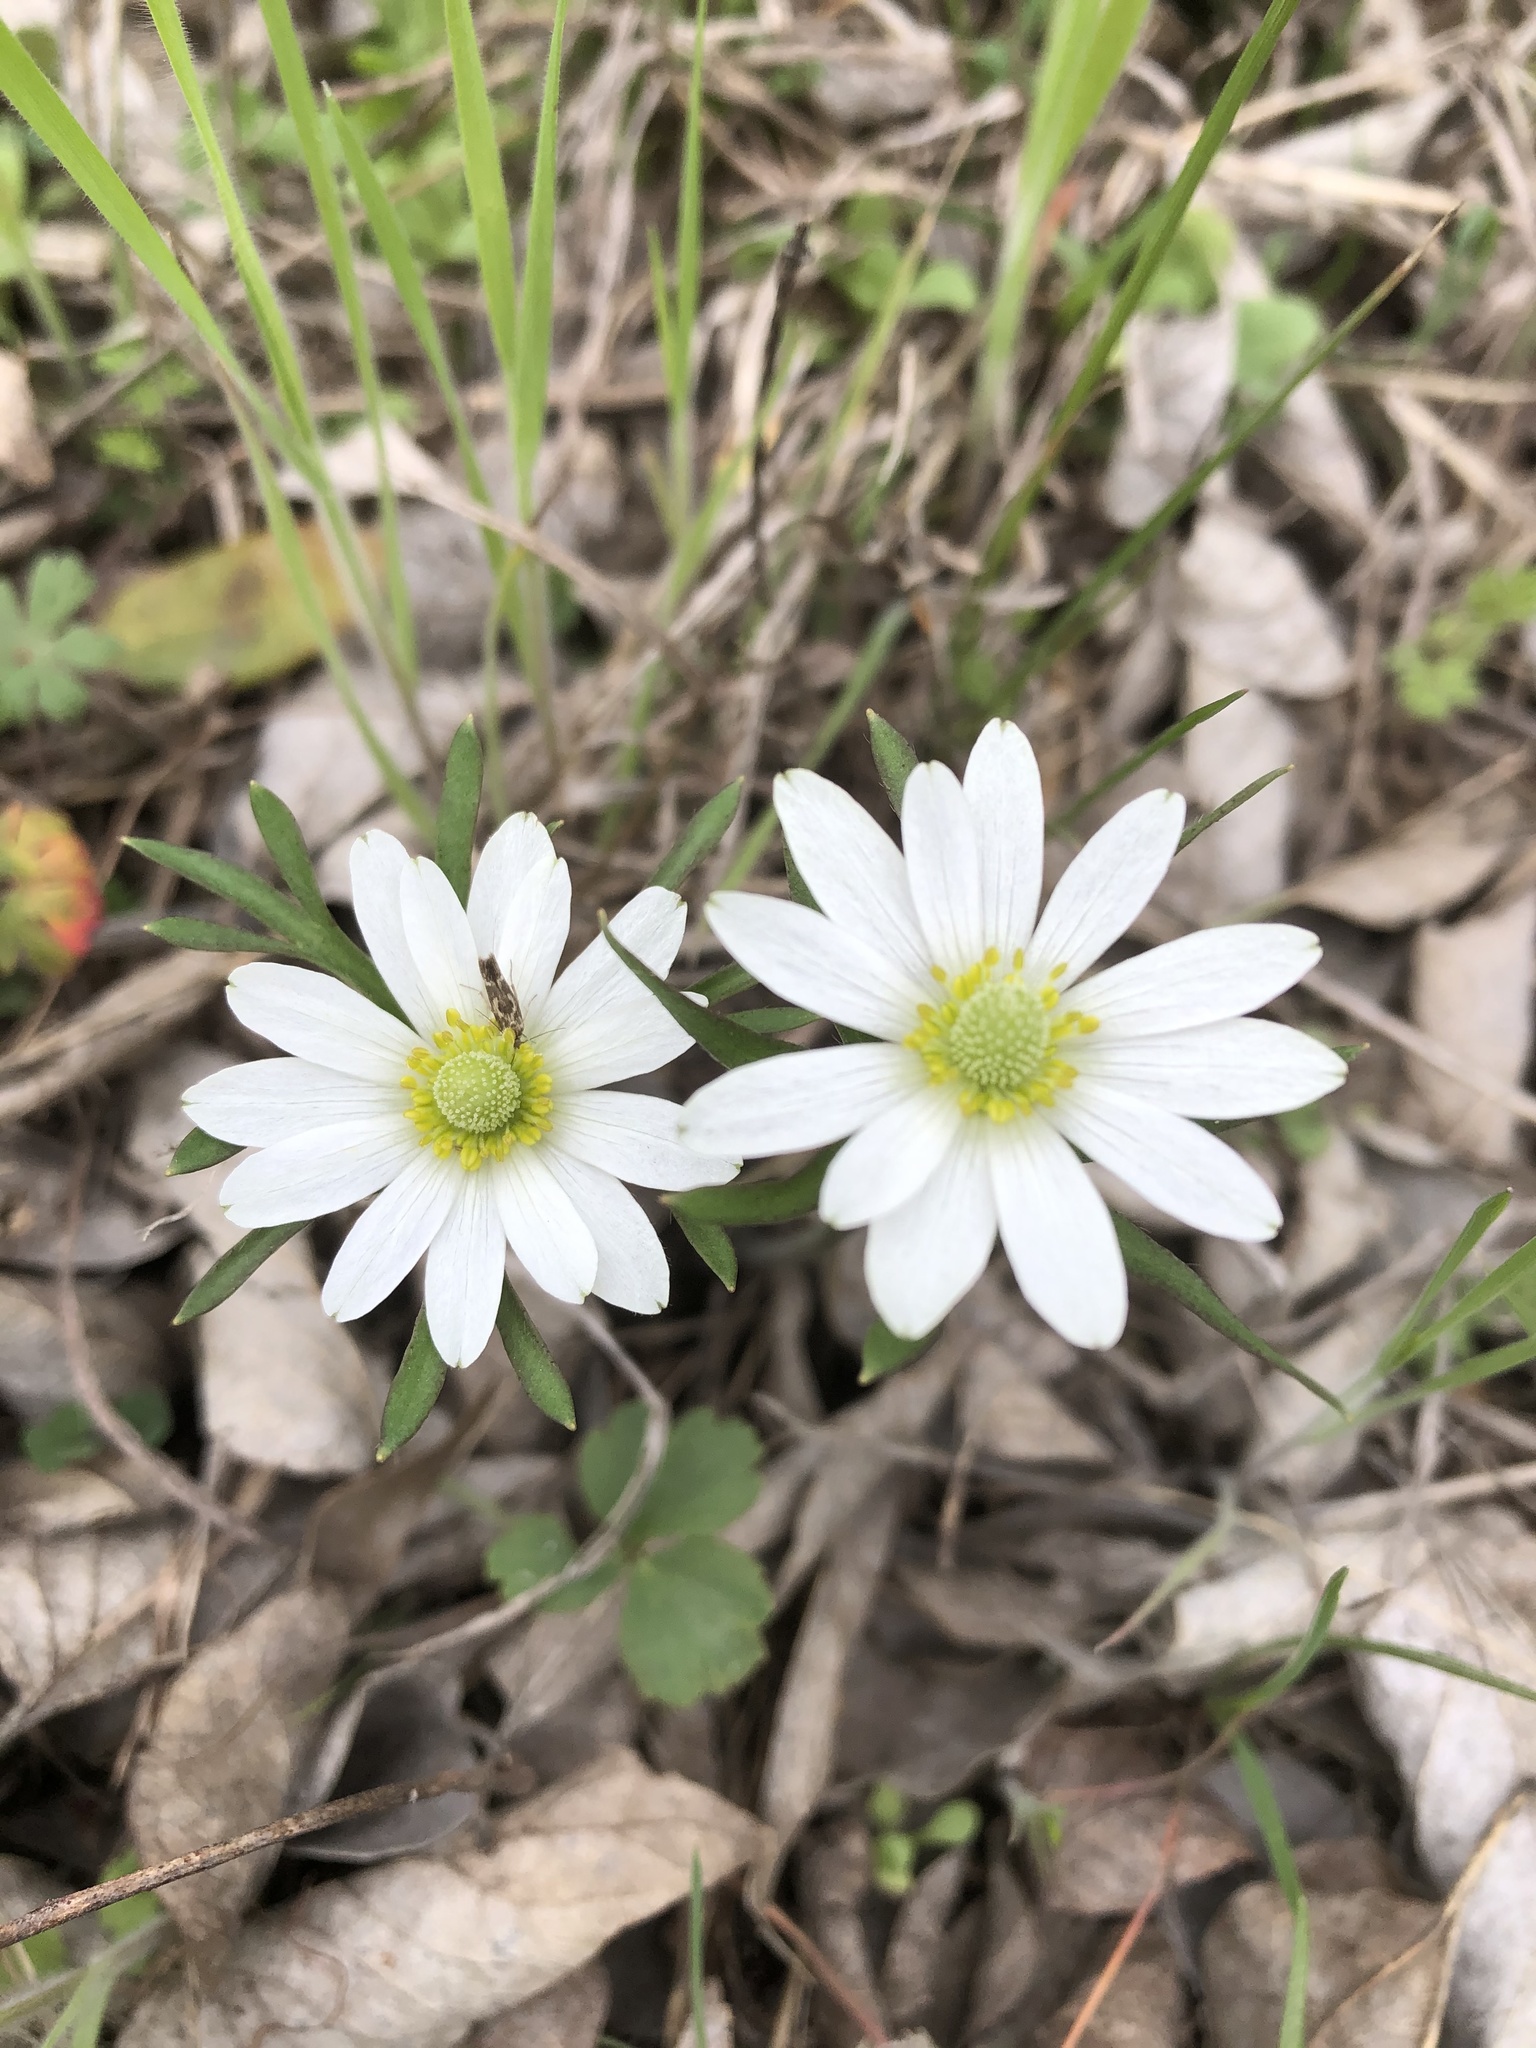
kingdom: Plantae
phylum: Tracheophyta
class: Magnoliopsida
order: Ranunculales
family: Ranunculaceae
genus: Anemone
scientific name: Anemone berlandieri
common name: Ten-petal anemone
